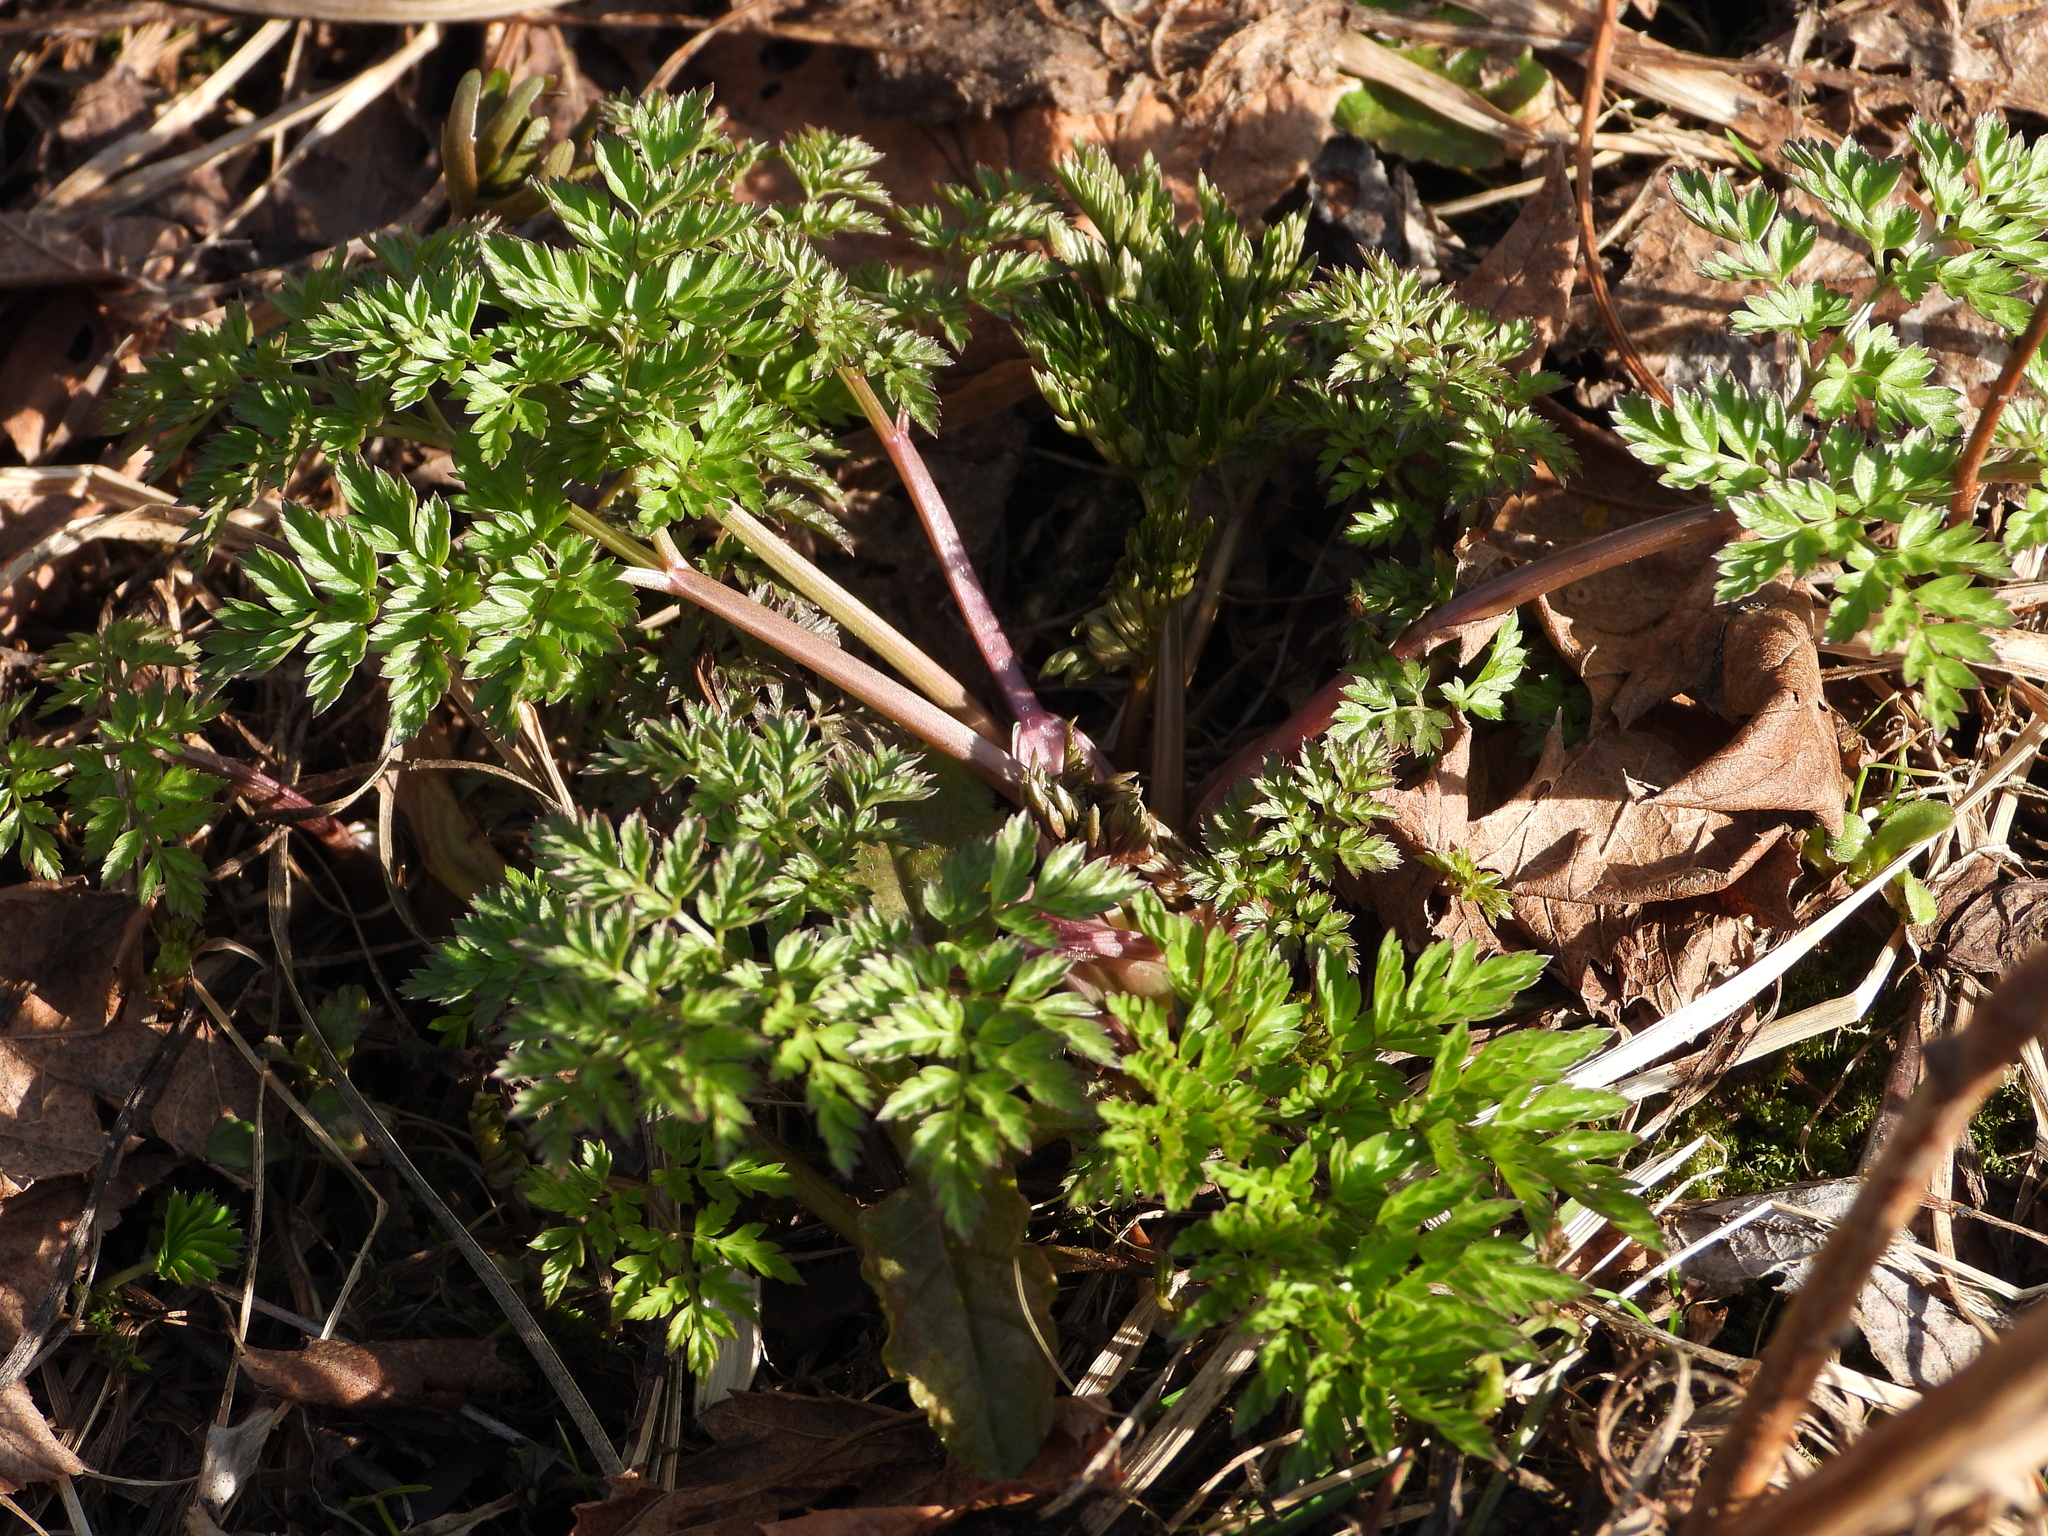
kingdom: Plantae
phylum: Tracheophyta
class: Magnoliopsida
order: Apiales
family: Apiaceae
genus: Anthriscus
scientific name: Anthriscus sylvestris
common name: Cow parsley
